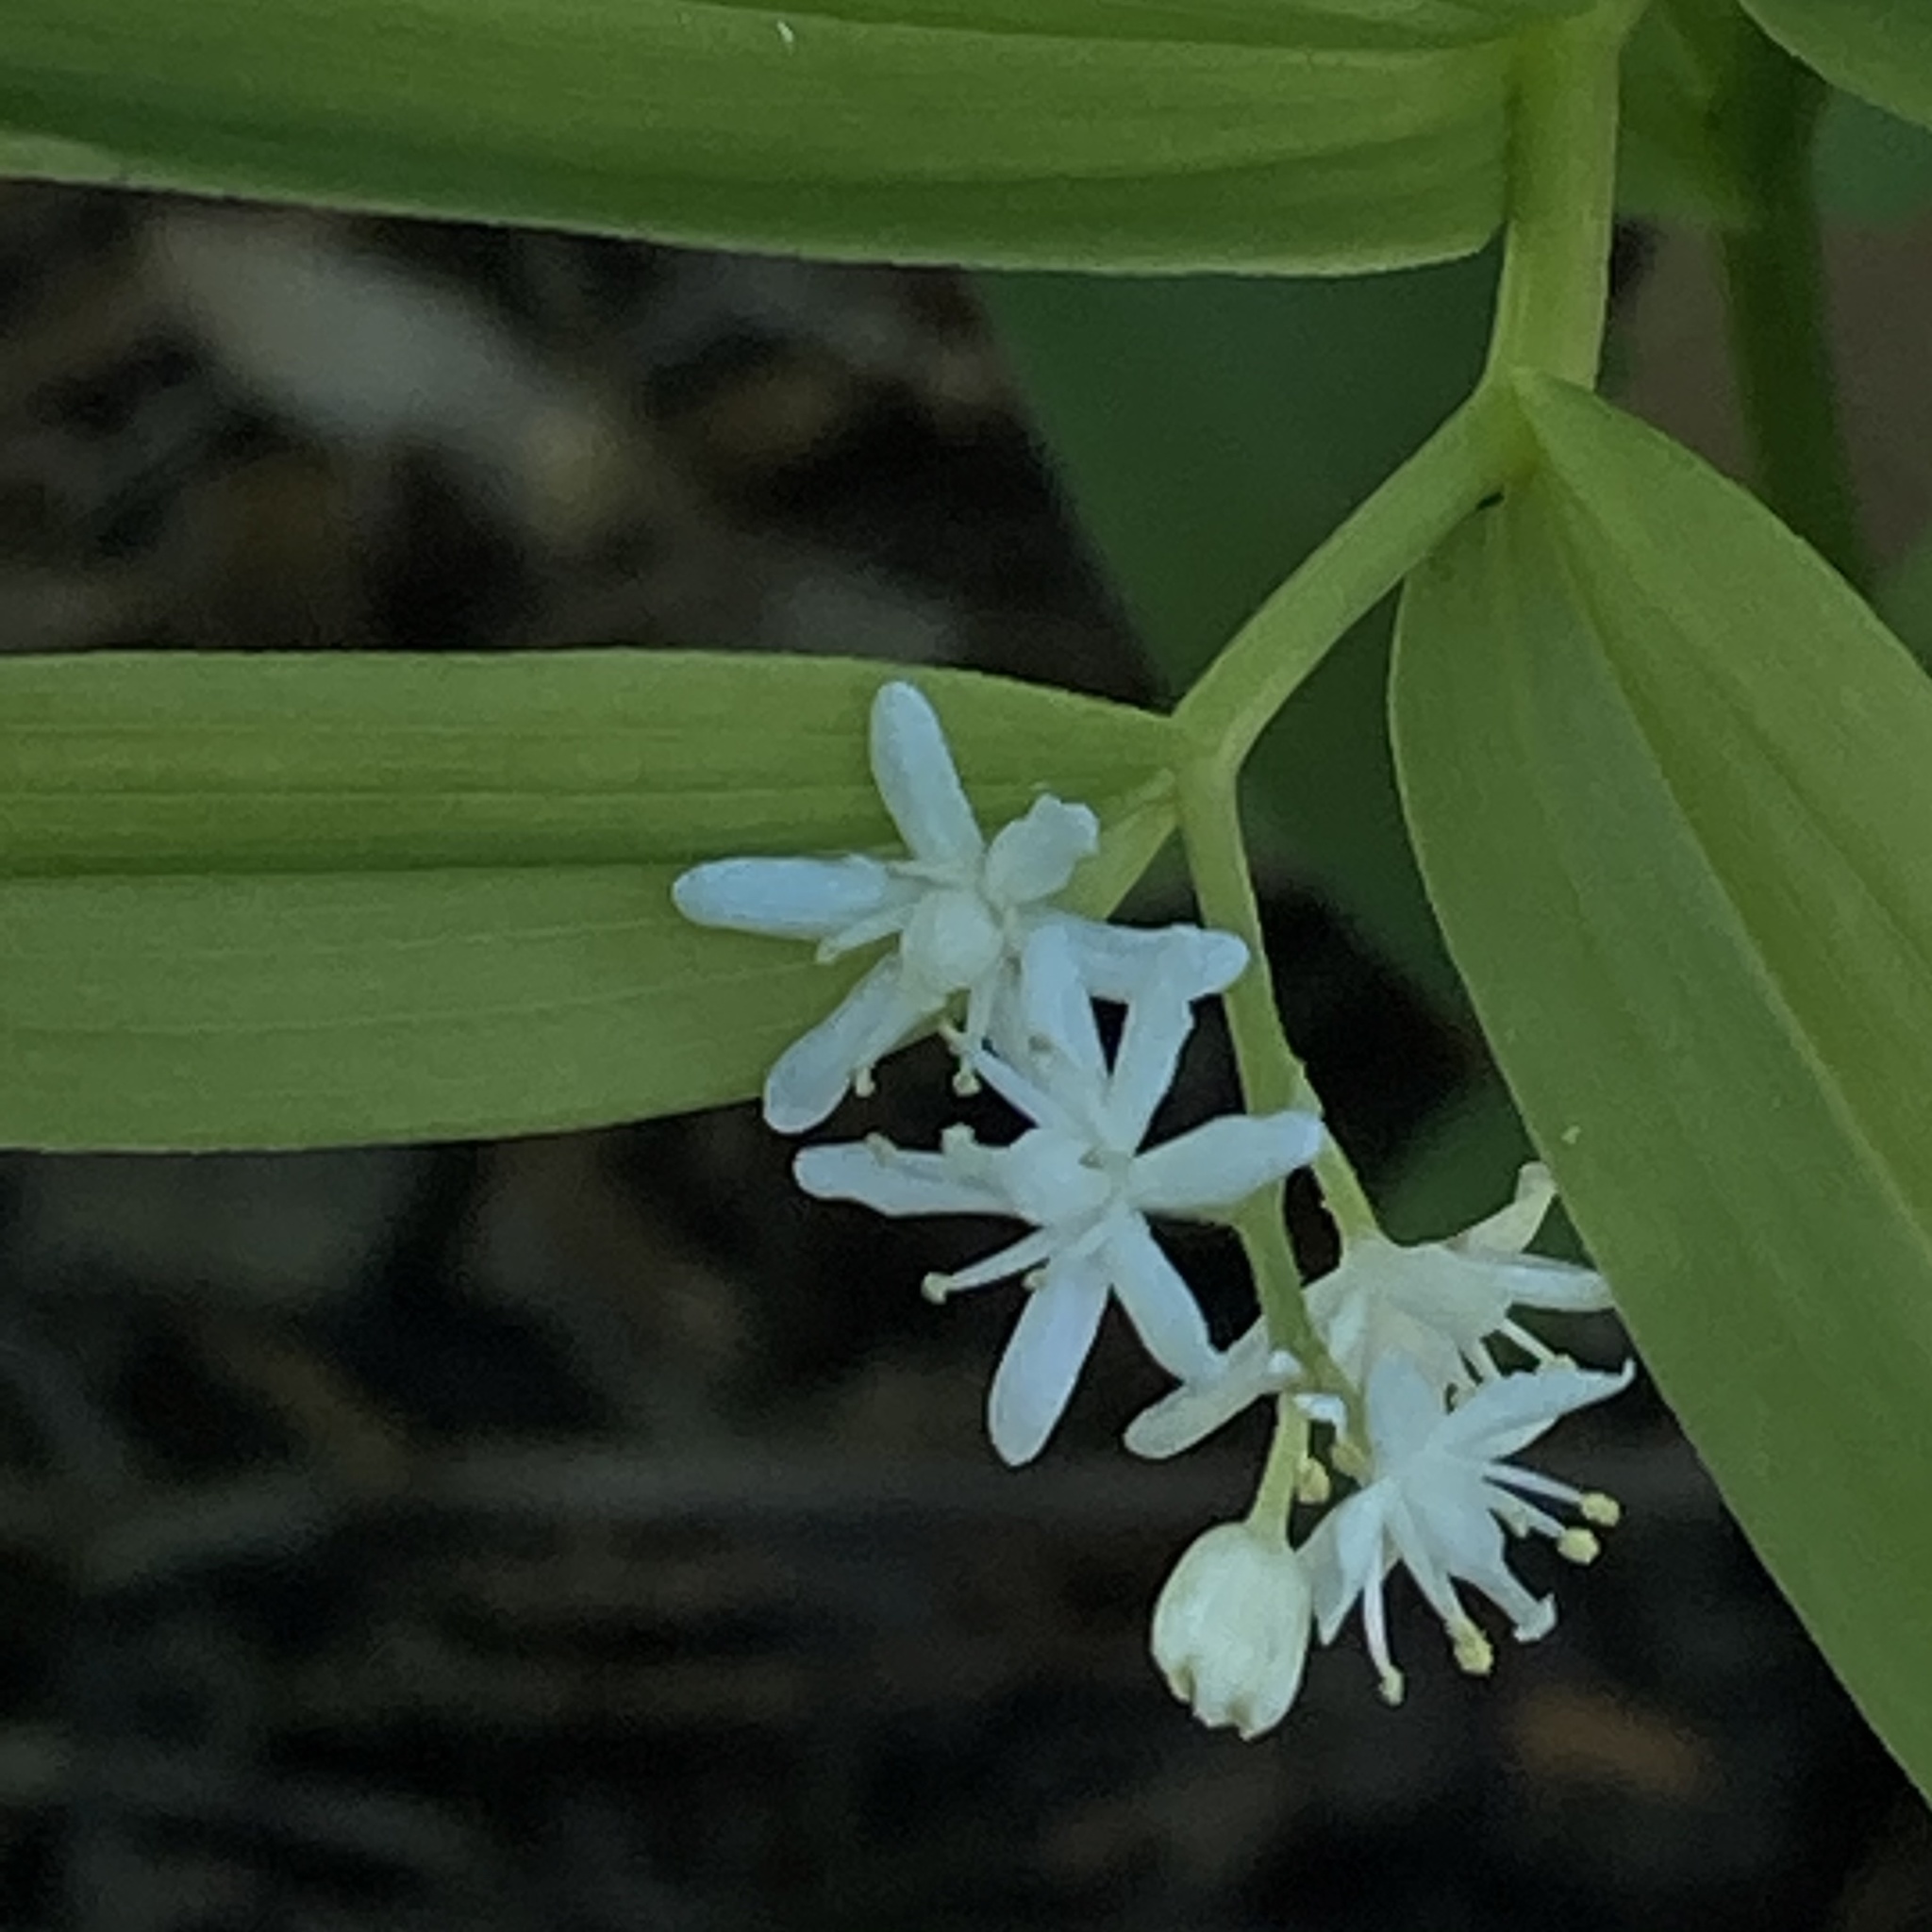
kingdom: Plantae
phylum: Tracheophyta
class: Liliopsida
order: Asparagales
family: Asparagaceae
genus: Maianthemum
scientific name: Maianthemum stellatum
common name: Little false solomon's seal
